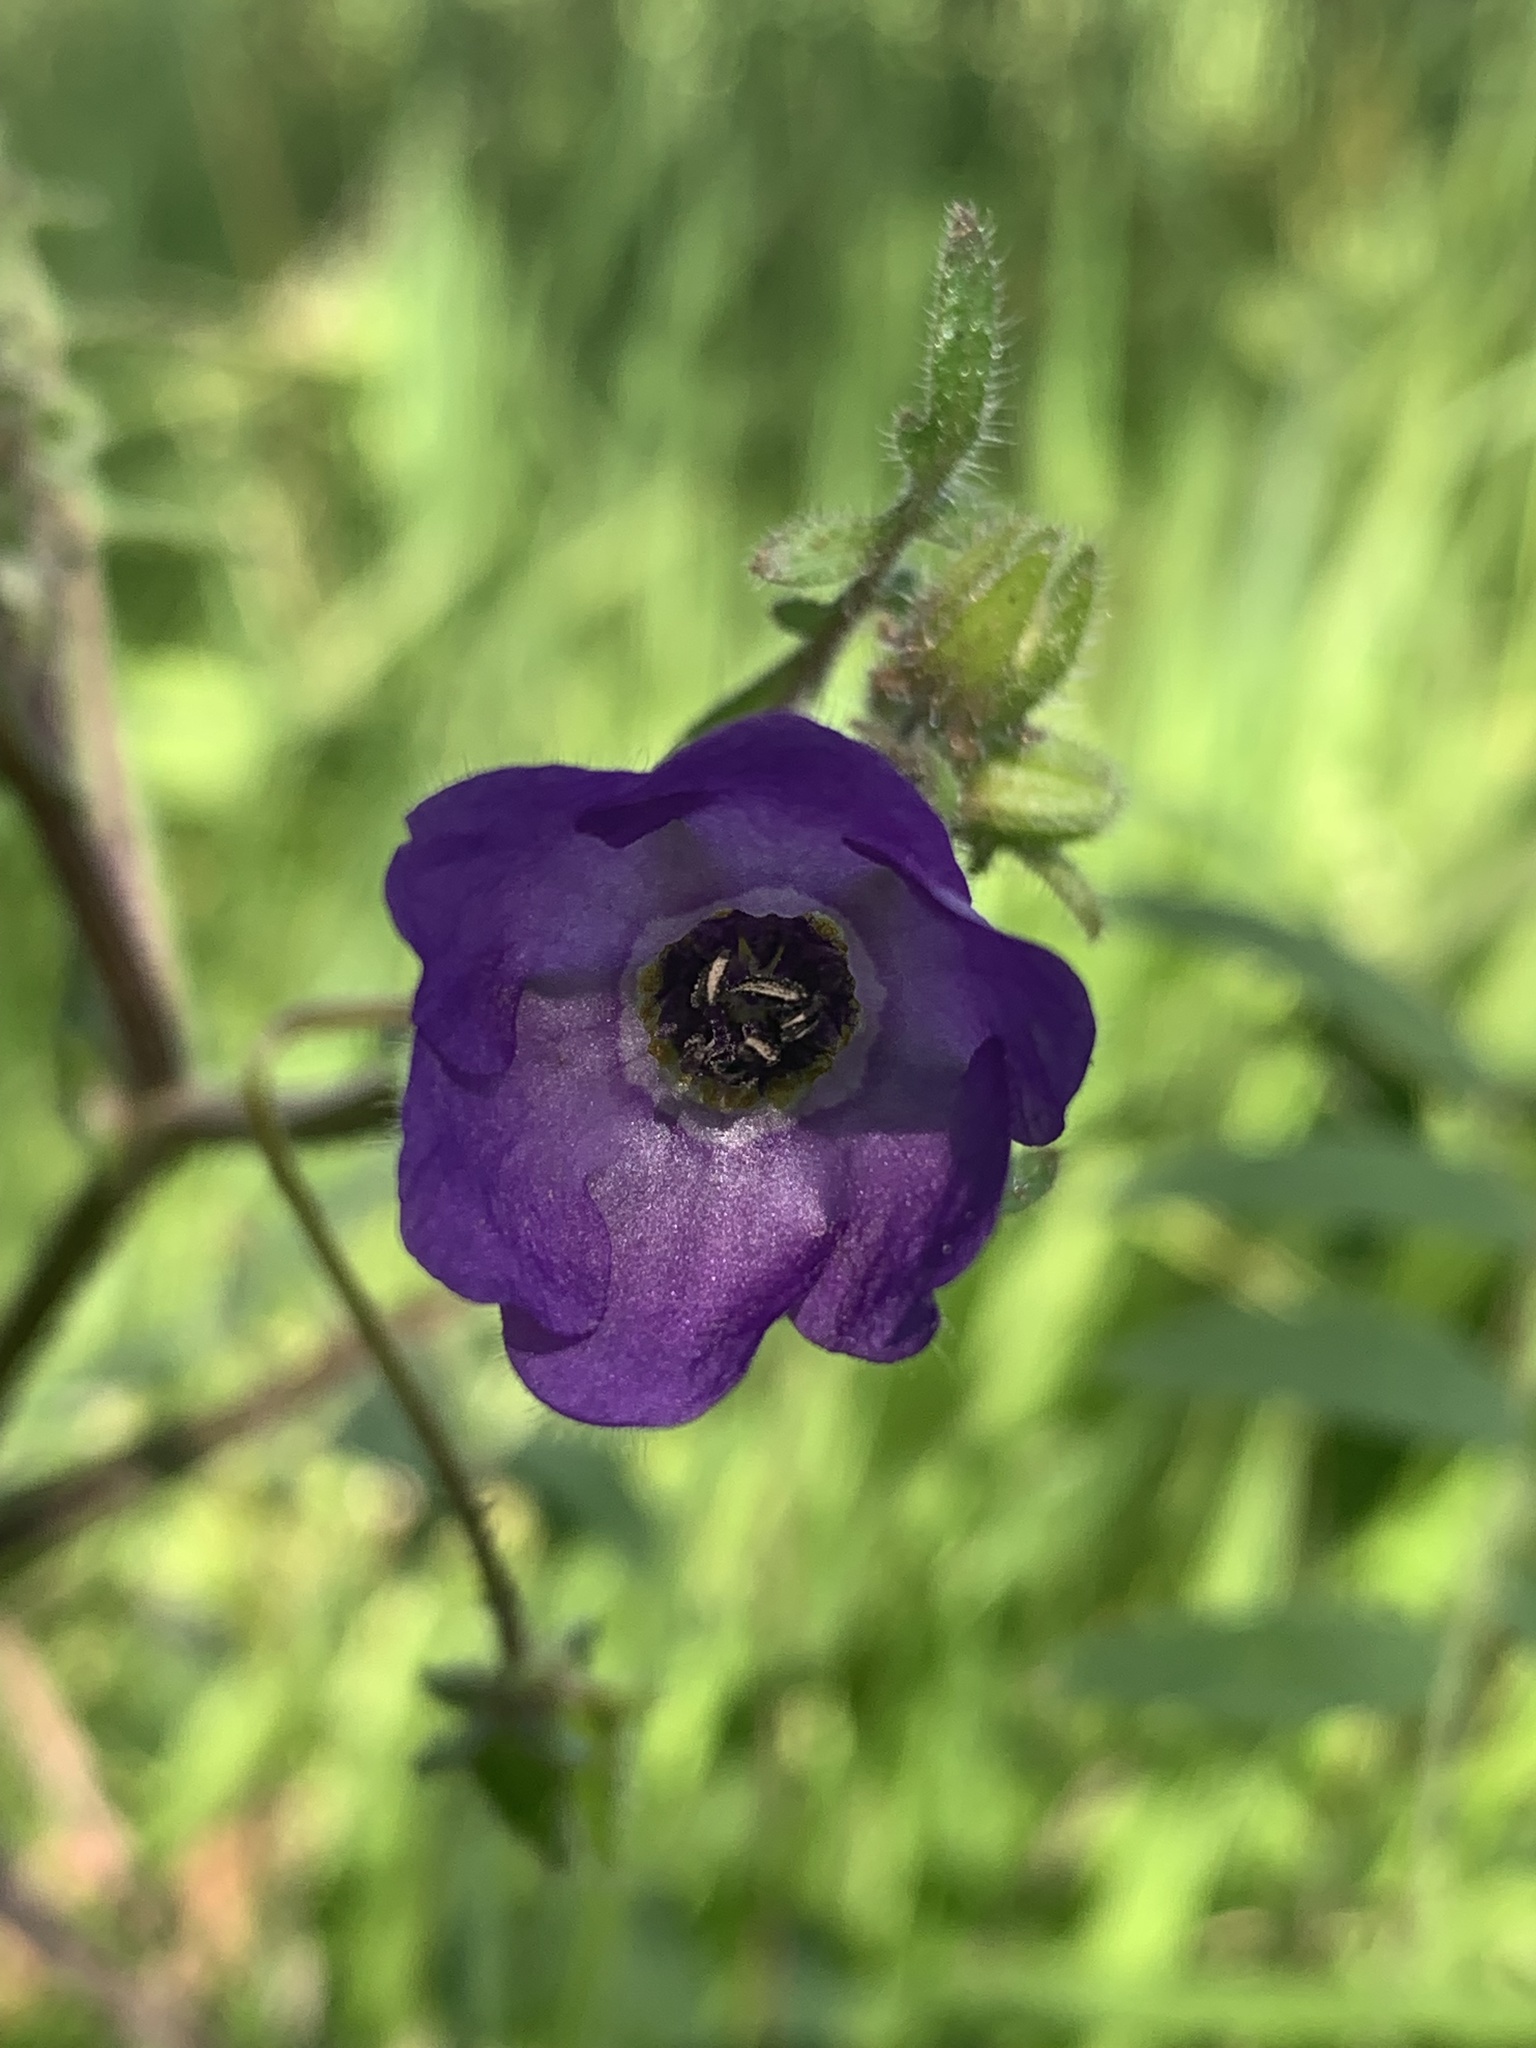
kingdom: Plantae
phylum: Tracheophyta
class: Magnoliopsida
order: Boraginales
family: Hydrophyllaceae
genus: Pholistoma
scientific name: Pholistoma auritum
